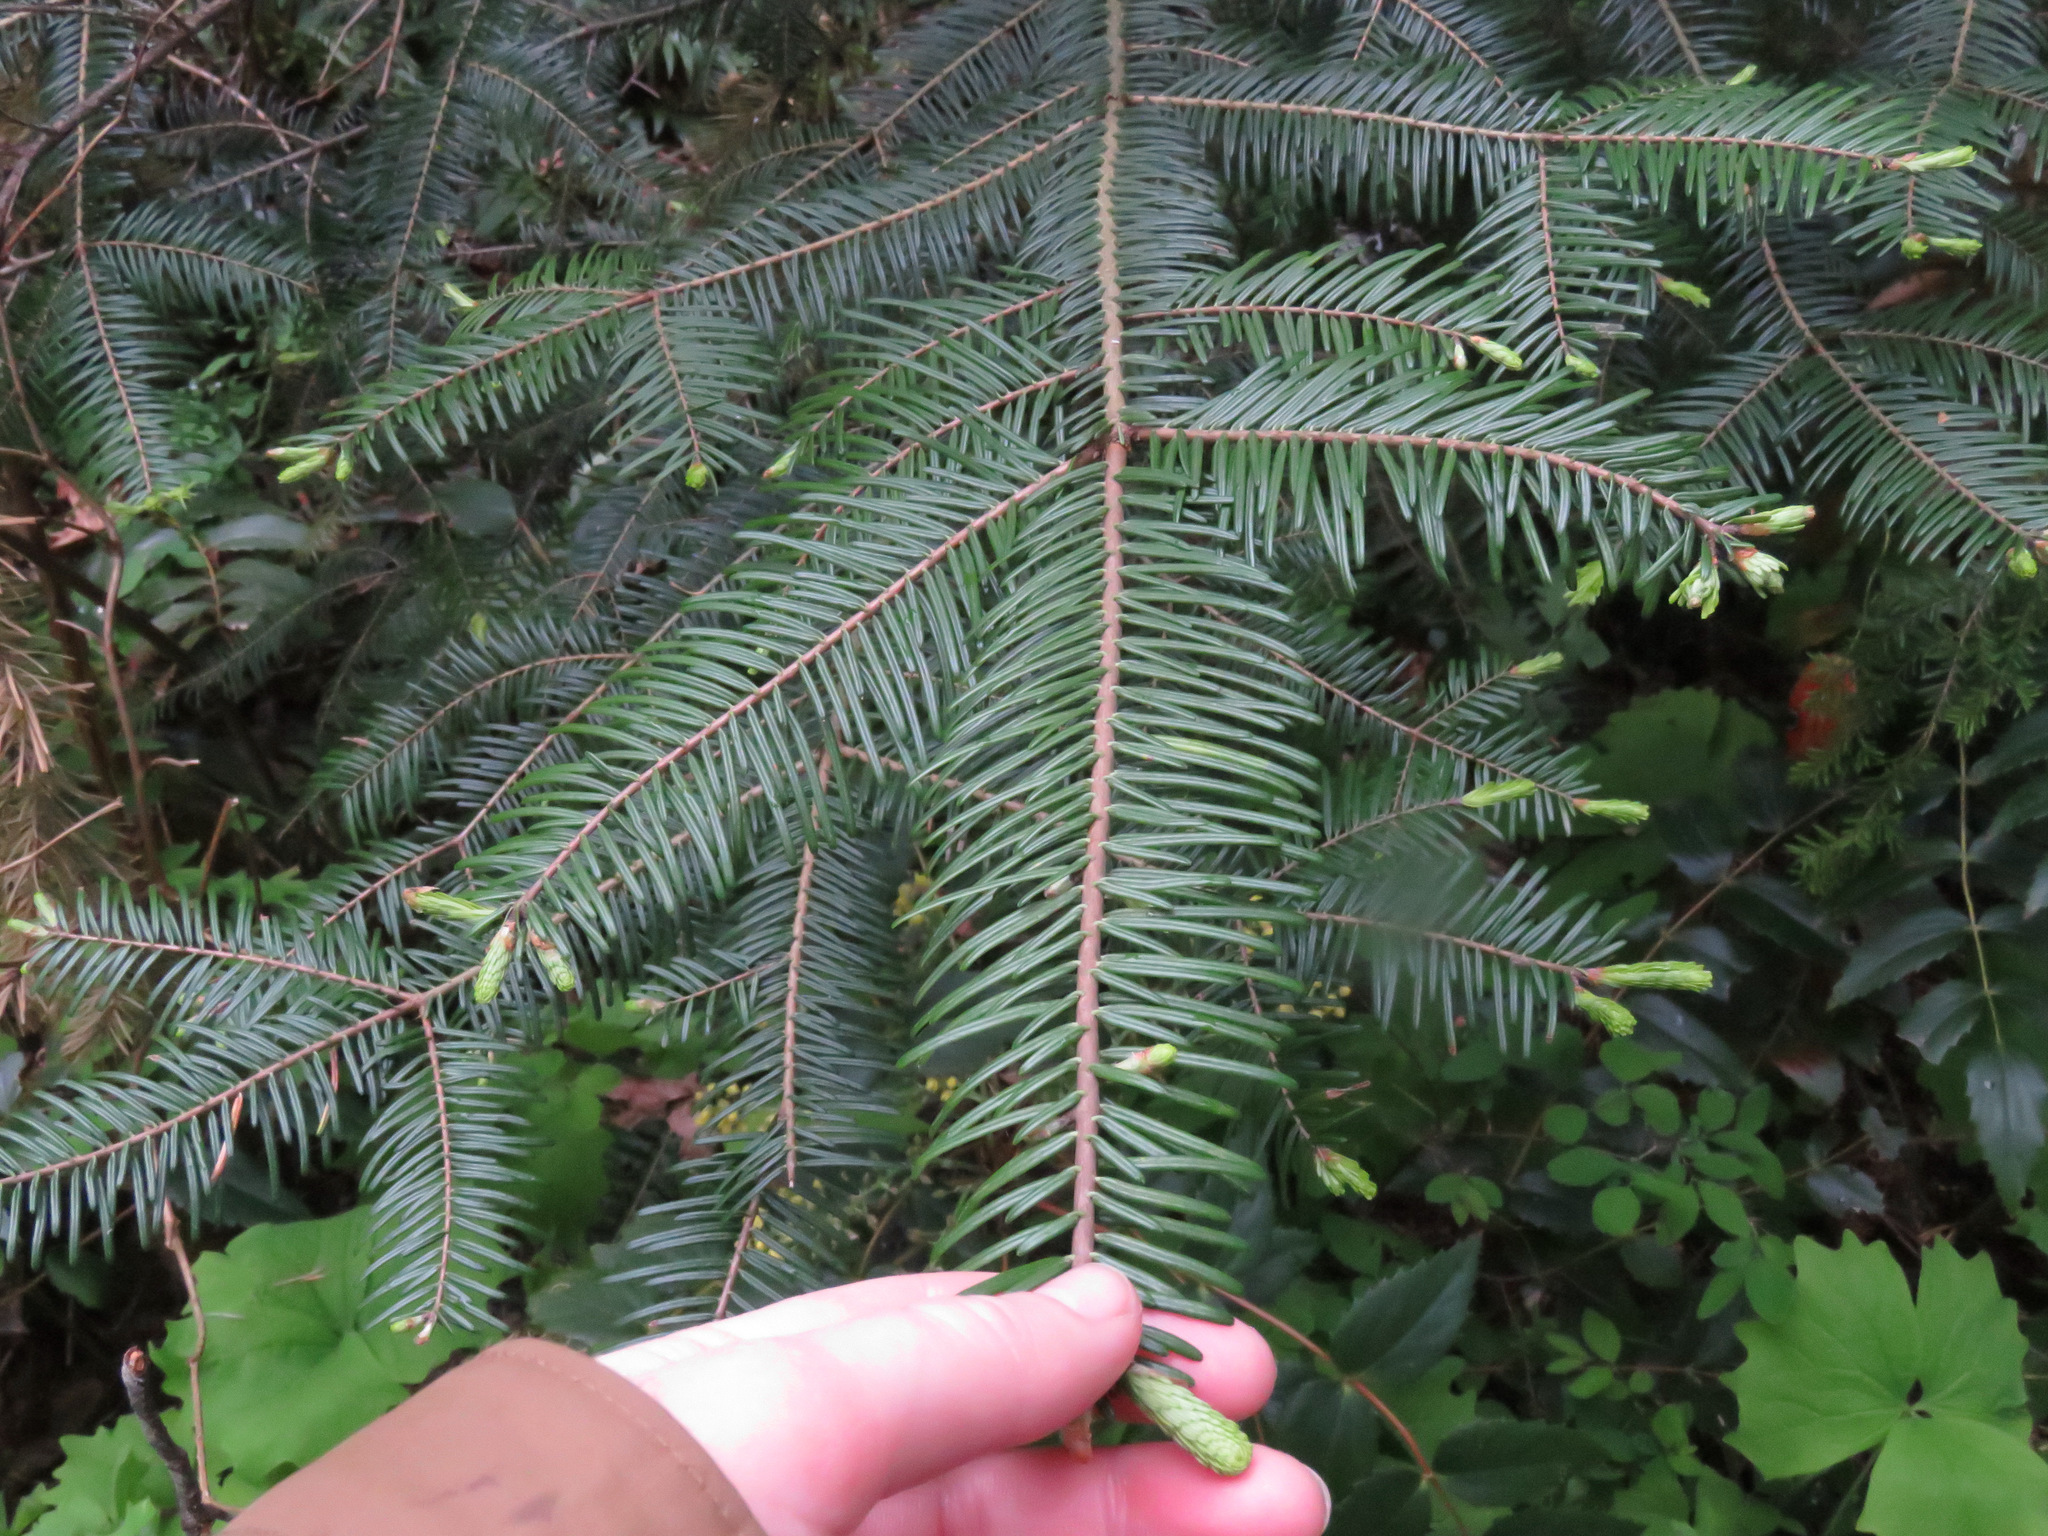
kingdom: Plantae
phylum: Tracheophyta
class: Pinopsida
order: Pinales
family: Pinaceae
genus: Abies
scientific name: Abies grandis
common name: Giant fir
